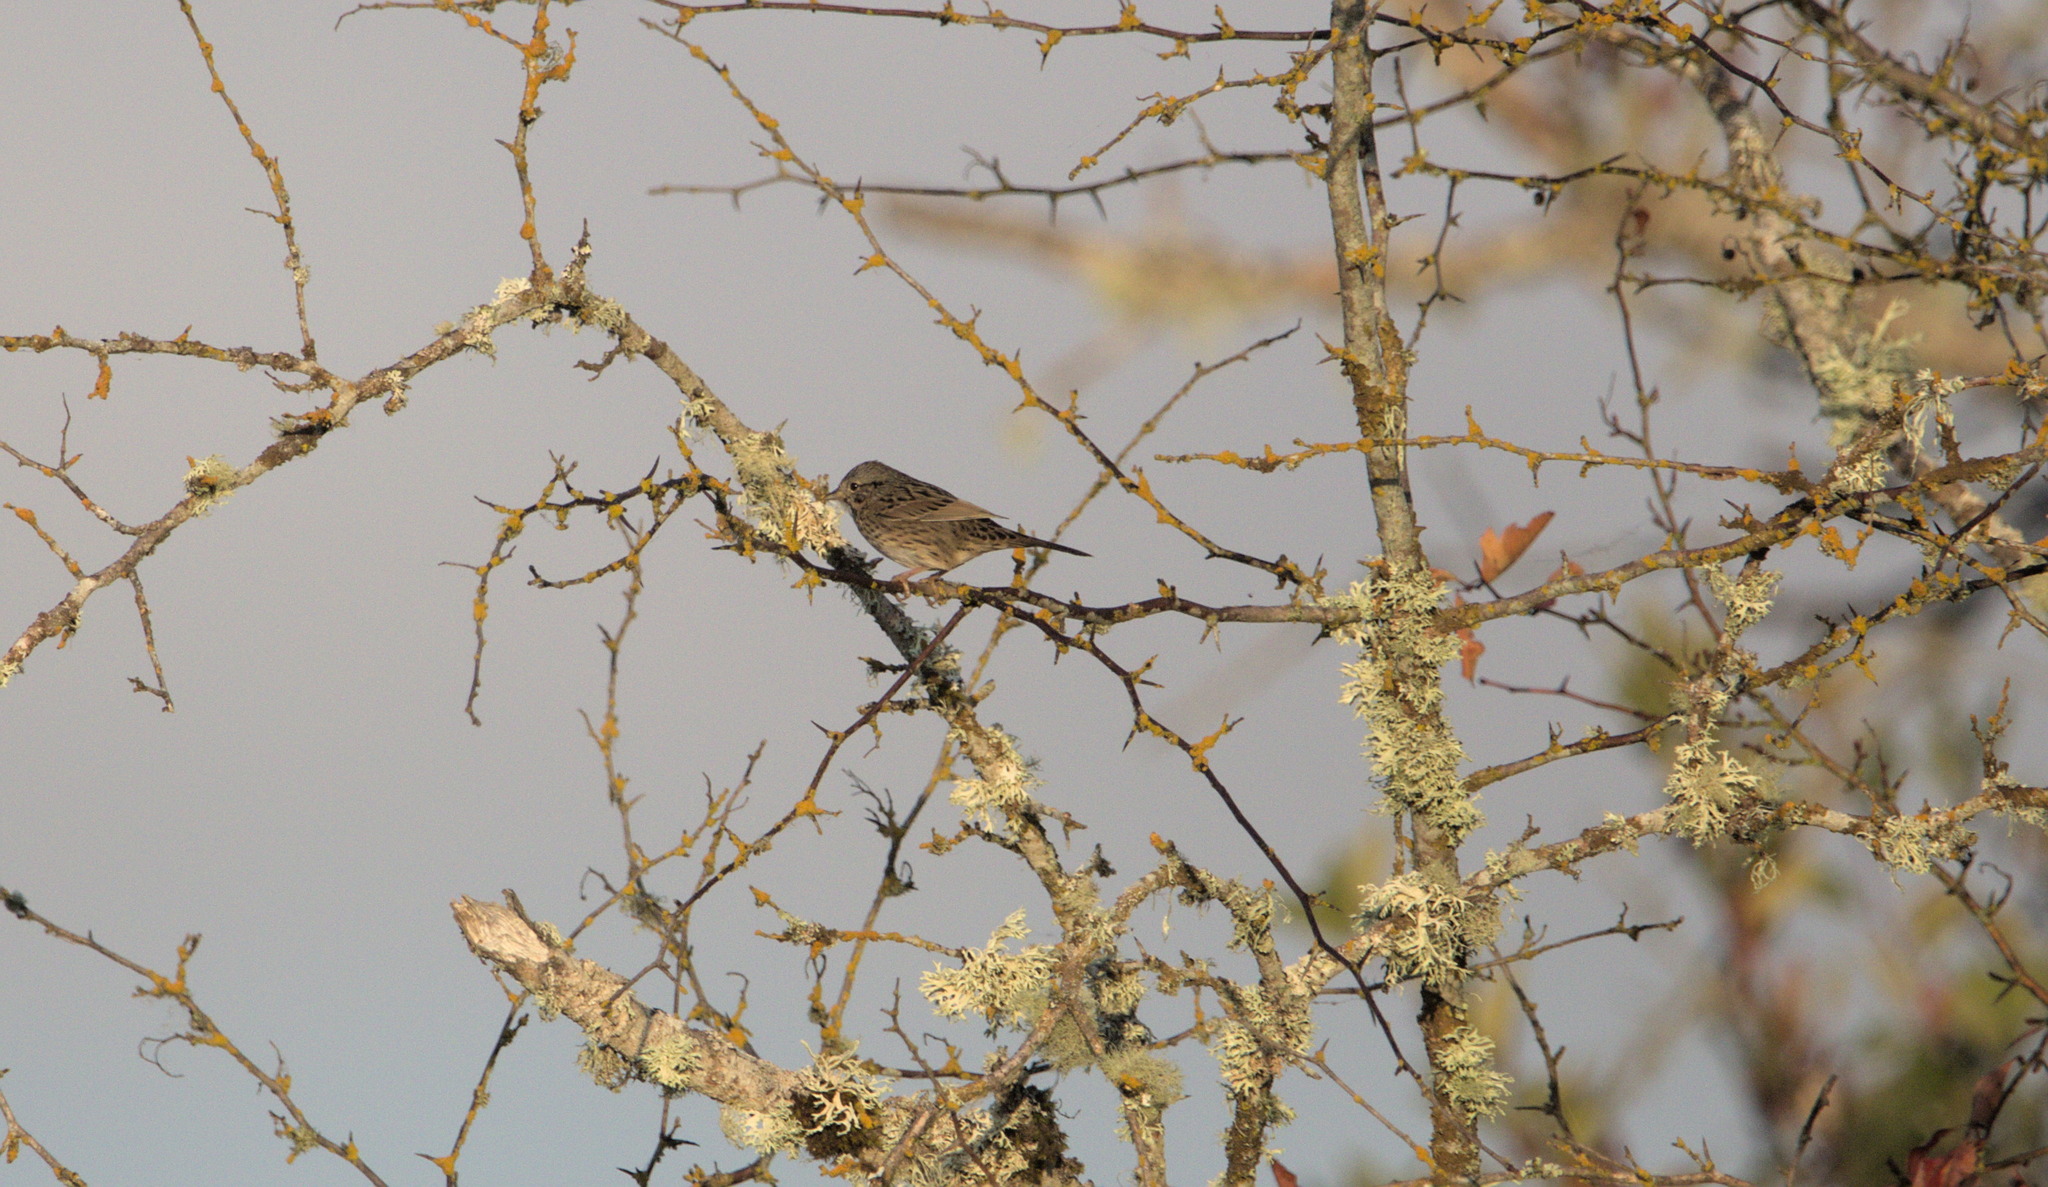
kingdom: Animalia
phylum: Chordata
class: Aves
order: Passeriformes
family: Passerellidae
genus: Melospiza
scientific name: Melospiza lincolnii
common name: Lincoln's sparrow
